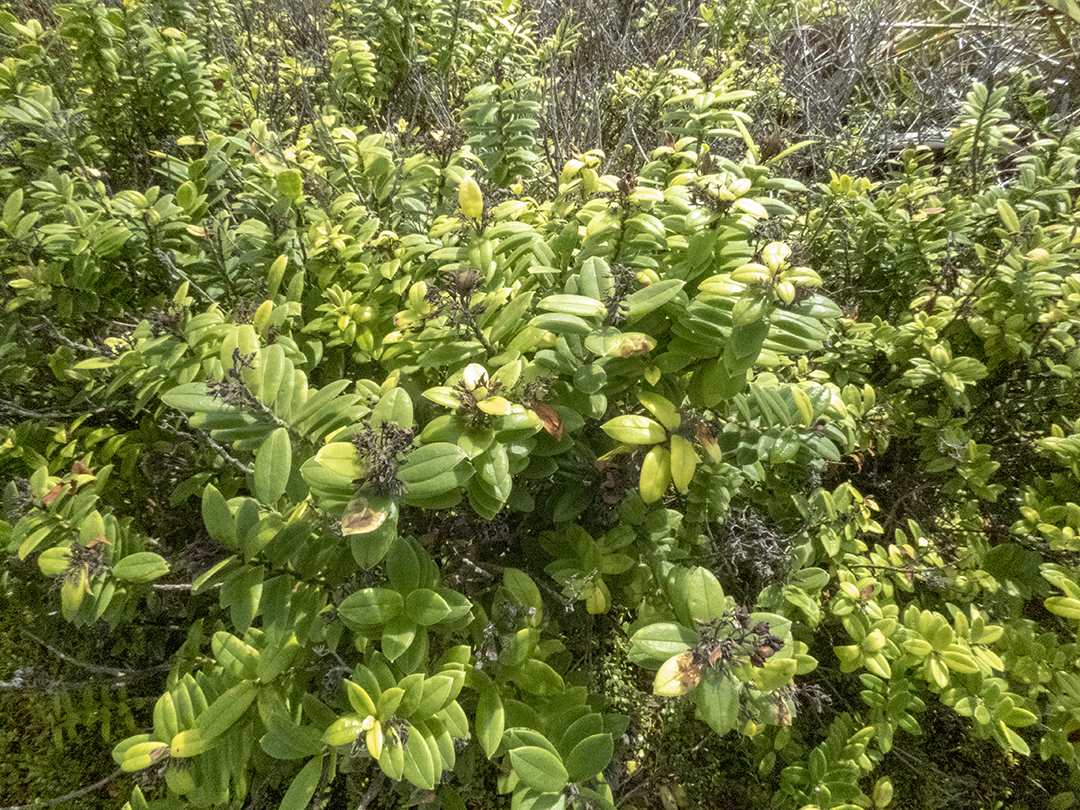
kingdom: Plantae
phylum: Tracheophyta
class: Magnoliopsida
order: Lamiales
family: Plantaginaceae
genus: Veronica
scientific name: Veronica elliptica
